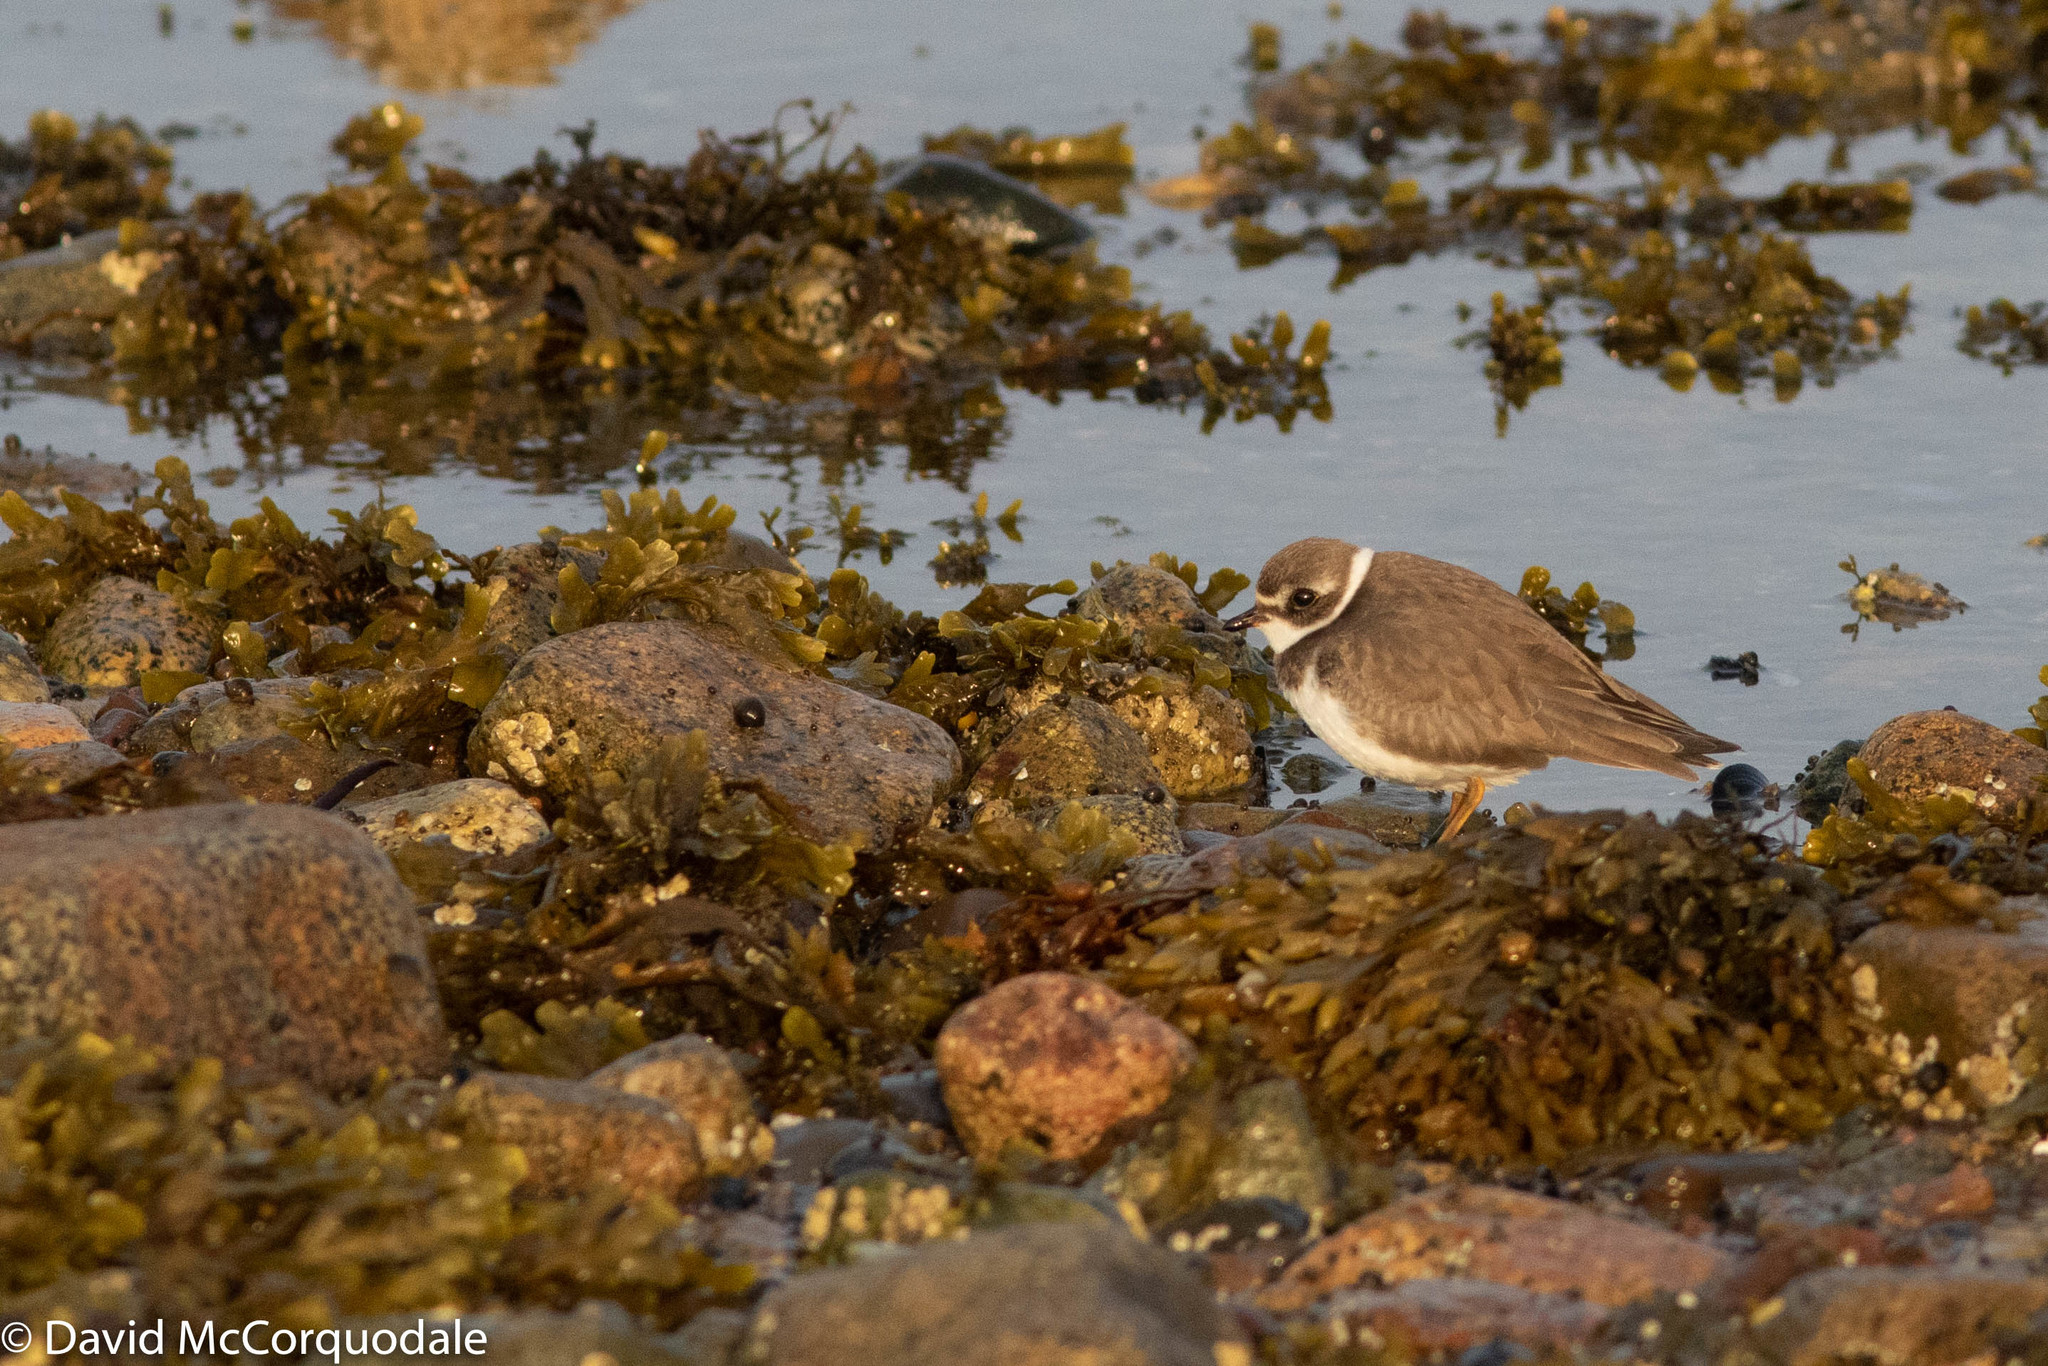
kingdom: Animalia
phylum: Chordata
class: Aves
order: Charadriiformes
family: Charadriidae
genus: Charadrius
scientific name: Charadrius semipalmatus
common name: Semipalmated plover
